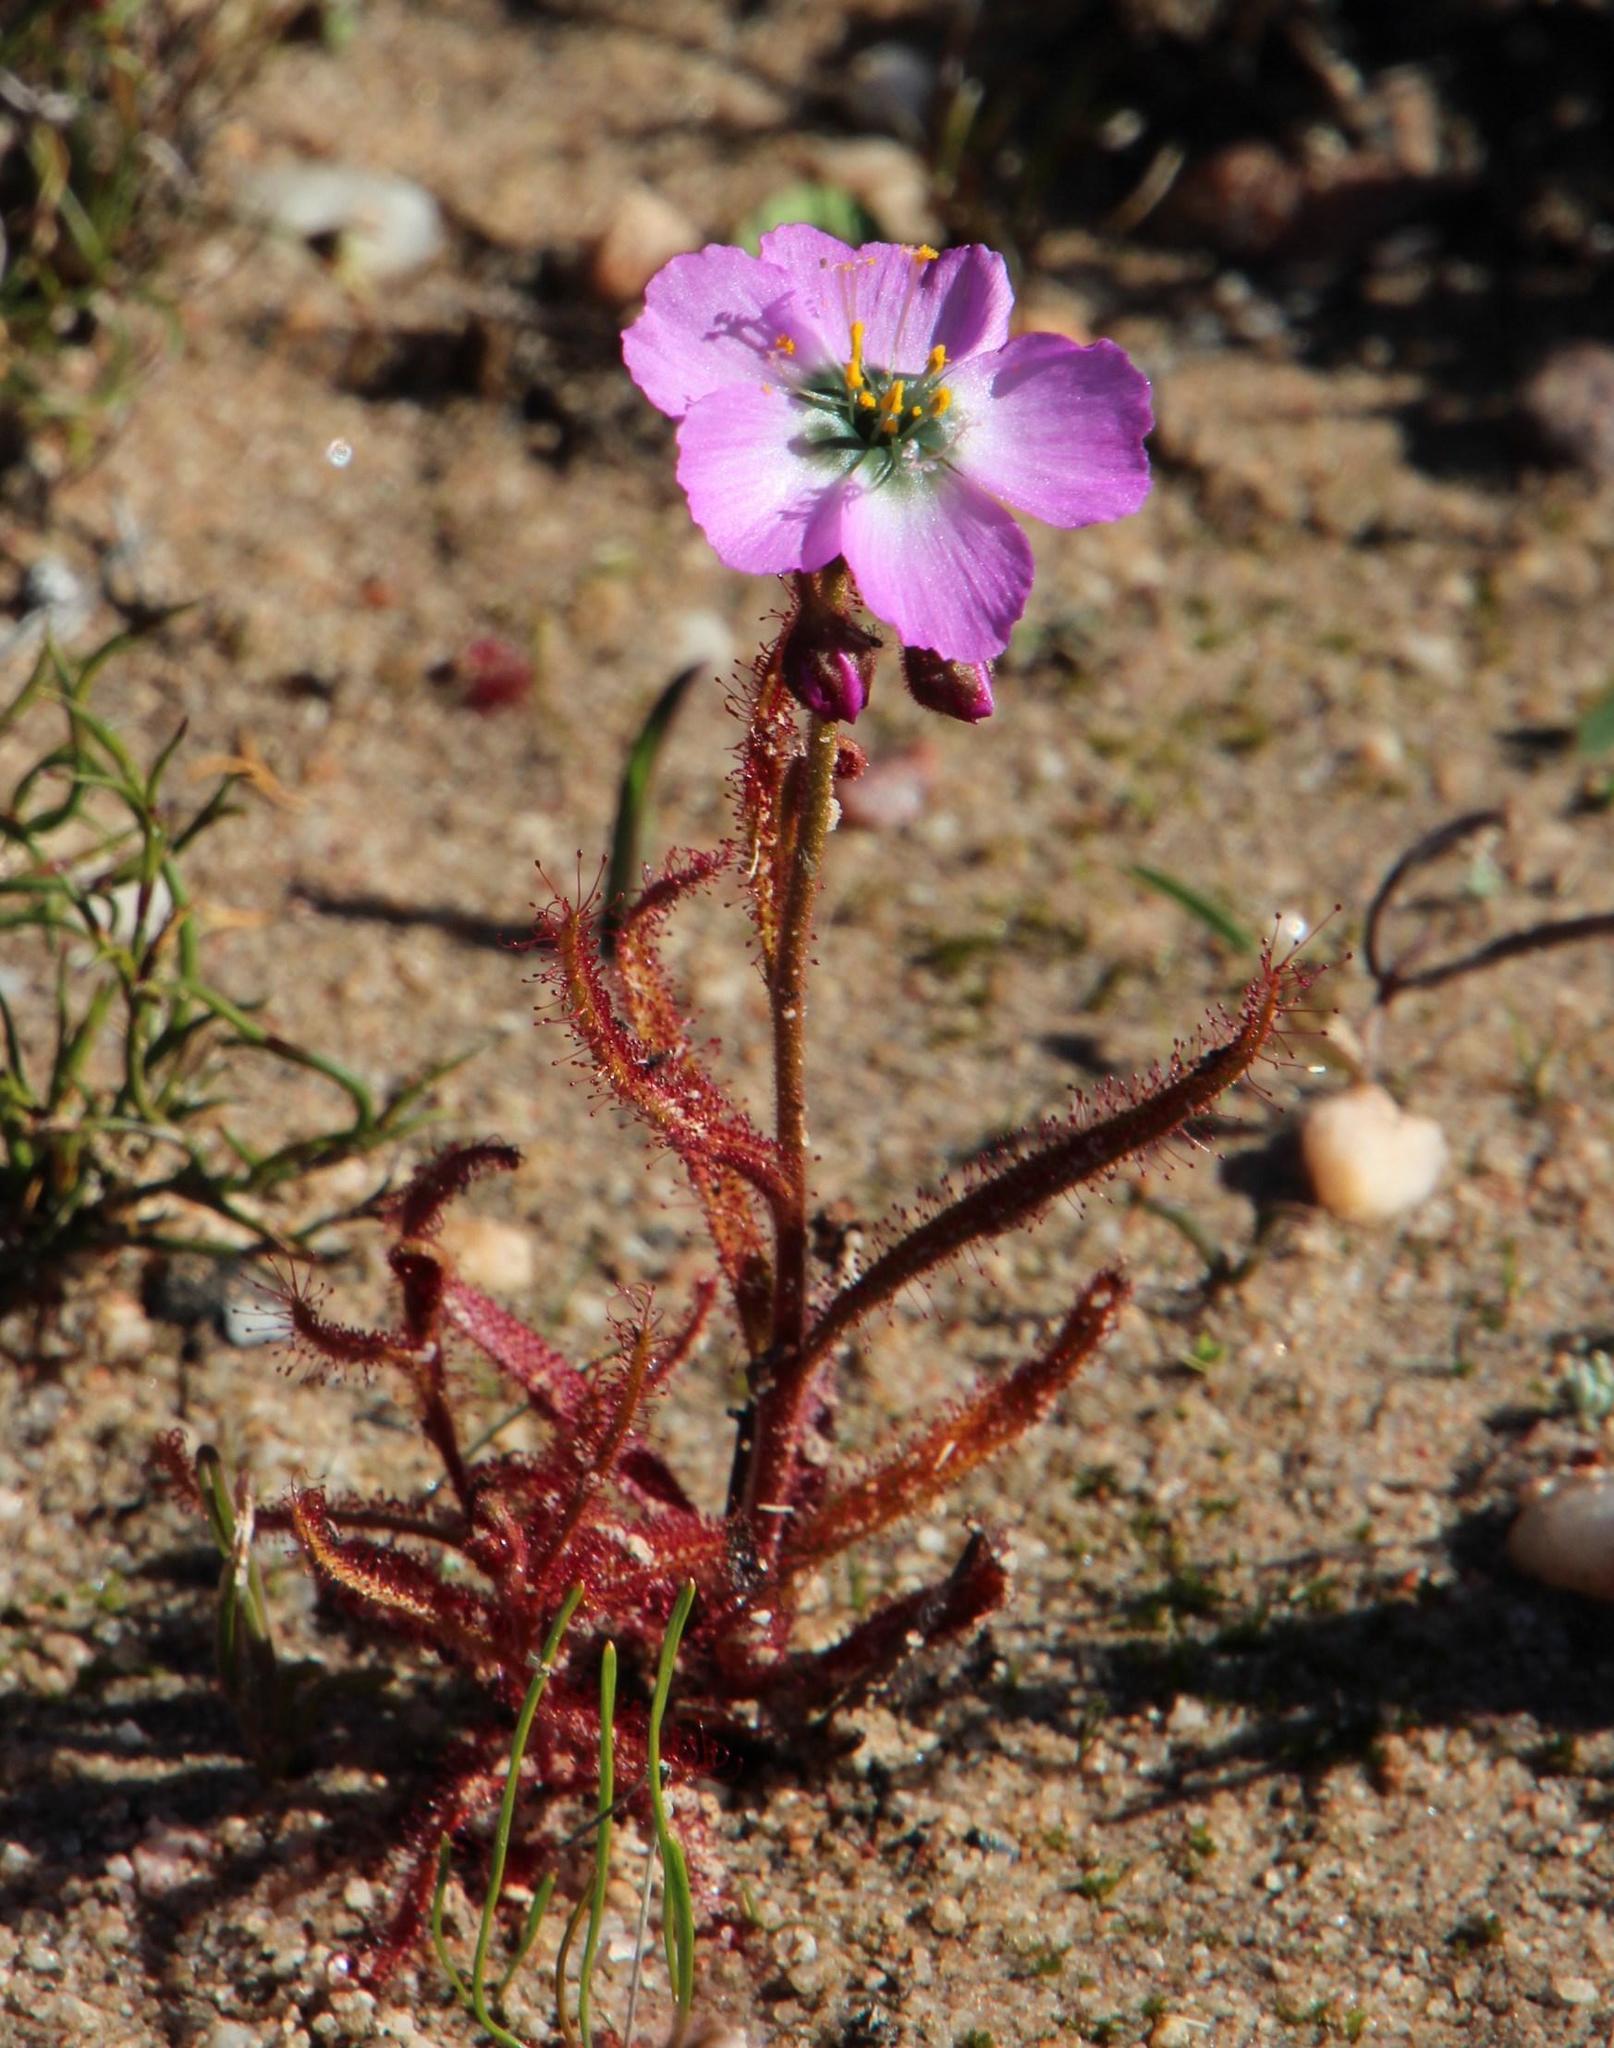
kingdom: Plantae
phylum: Tracheophyta
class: Magnoliopsida
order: Caryophyllales
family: Droseraceae
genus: Drosera
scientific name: Drosera cistiflora
